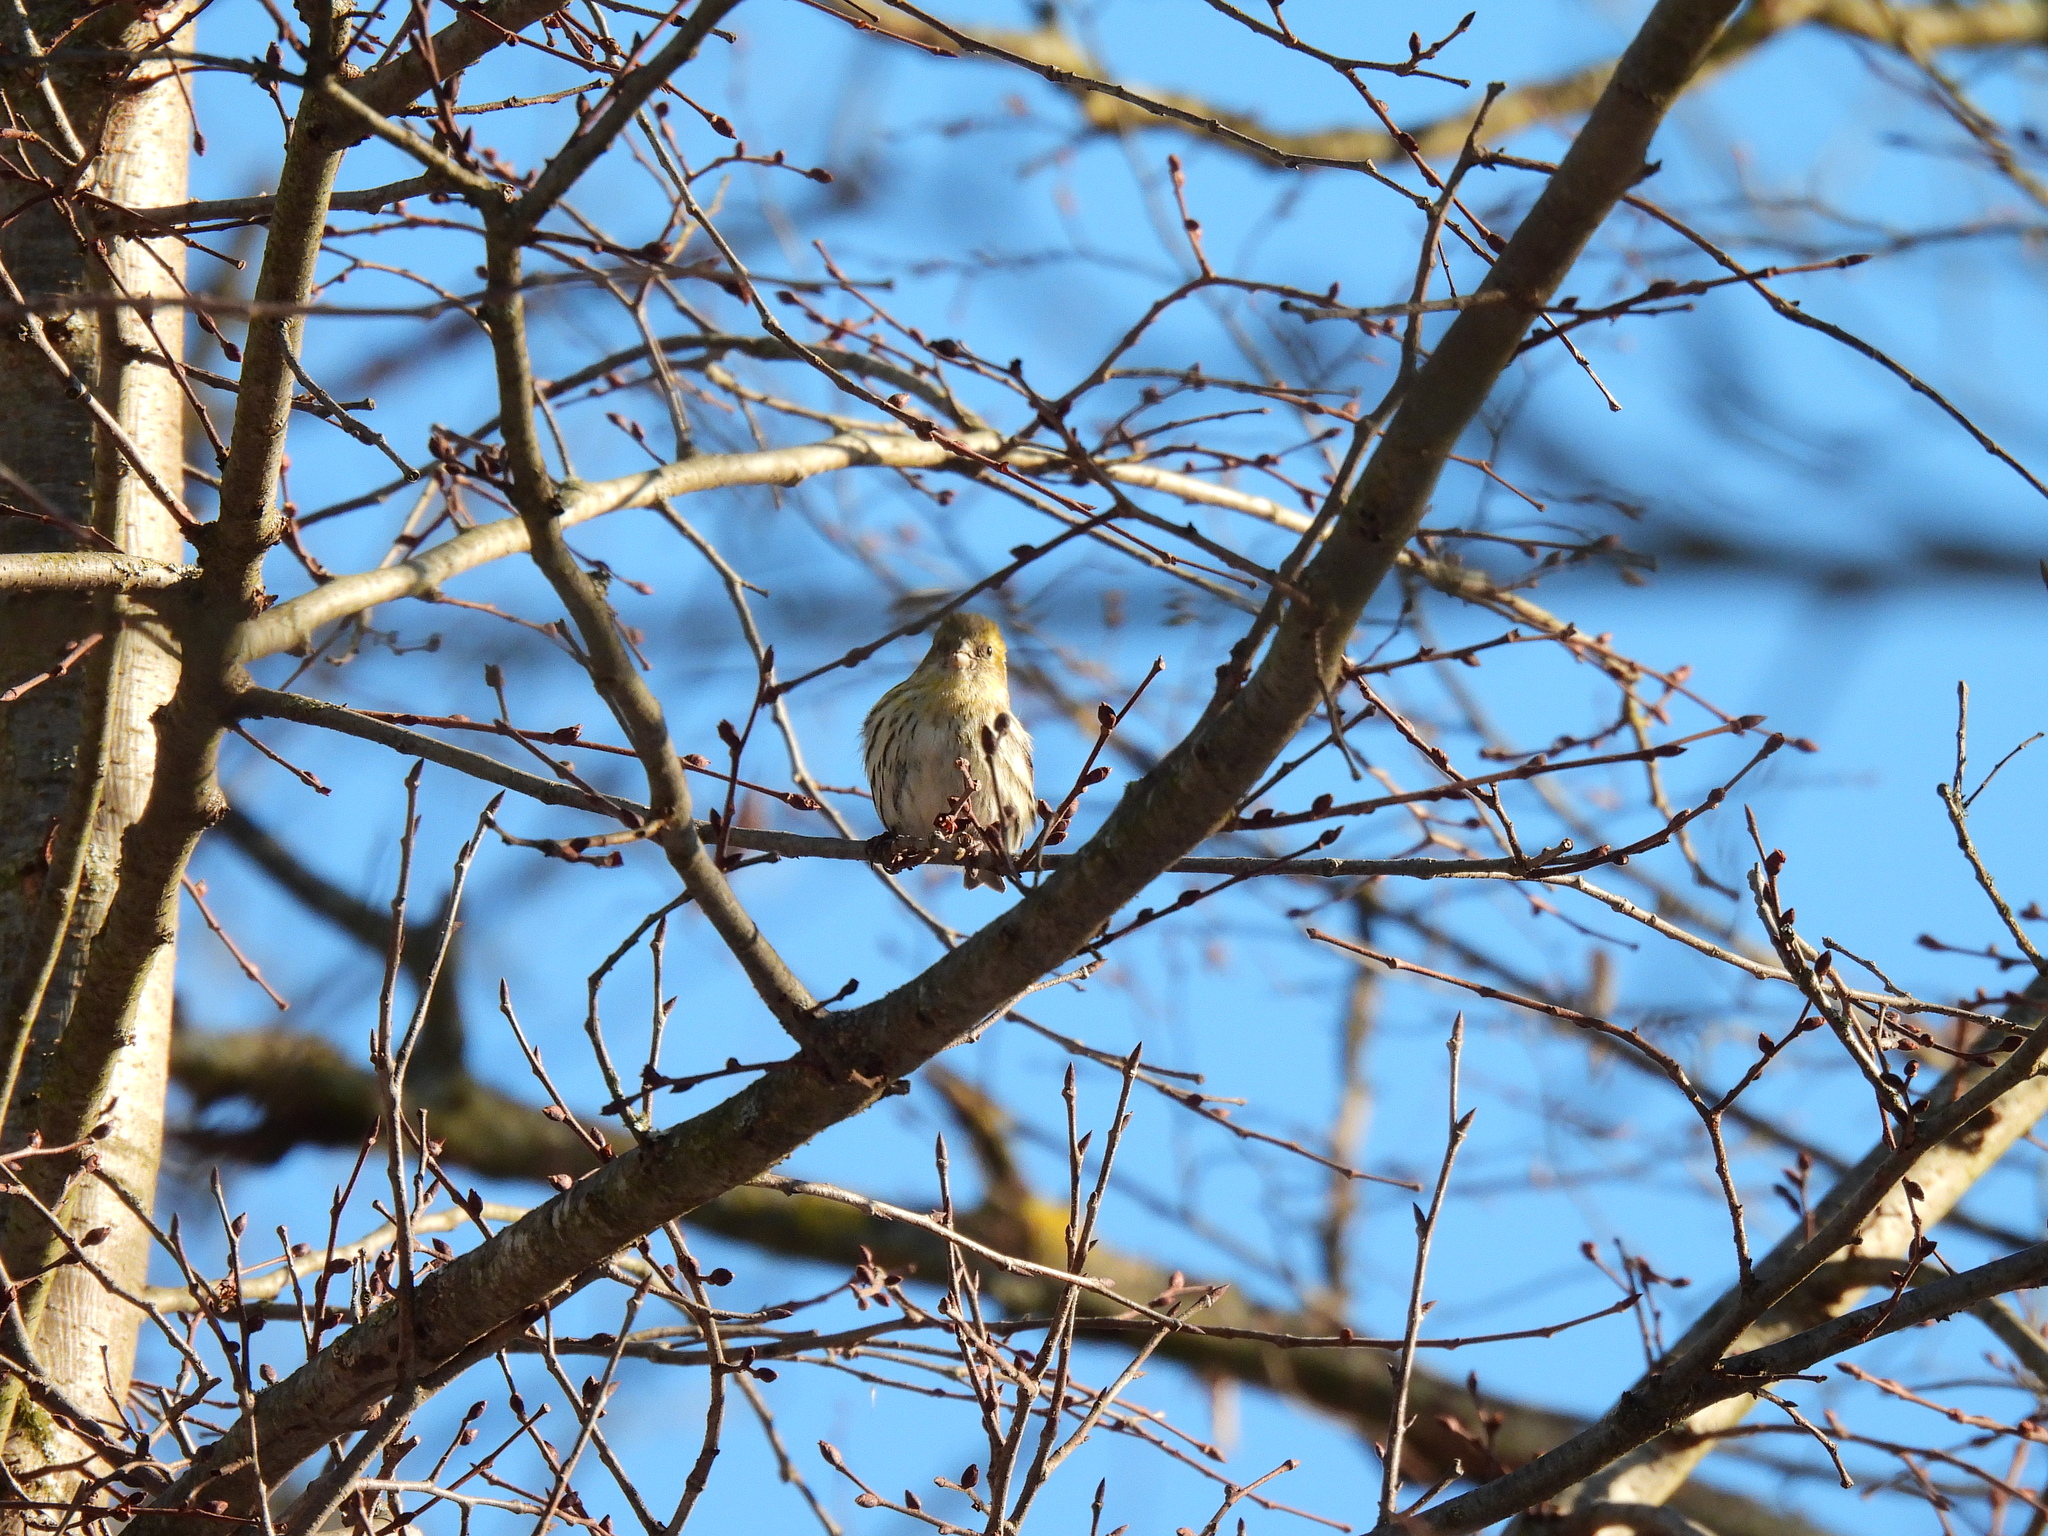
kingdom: Animalia
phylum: Chordata
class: Aves
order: Passeriformes
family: Fringillidae
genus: Spinus
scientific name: Spinus spinus
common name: Eurasian siskin
